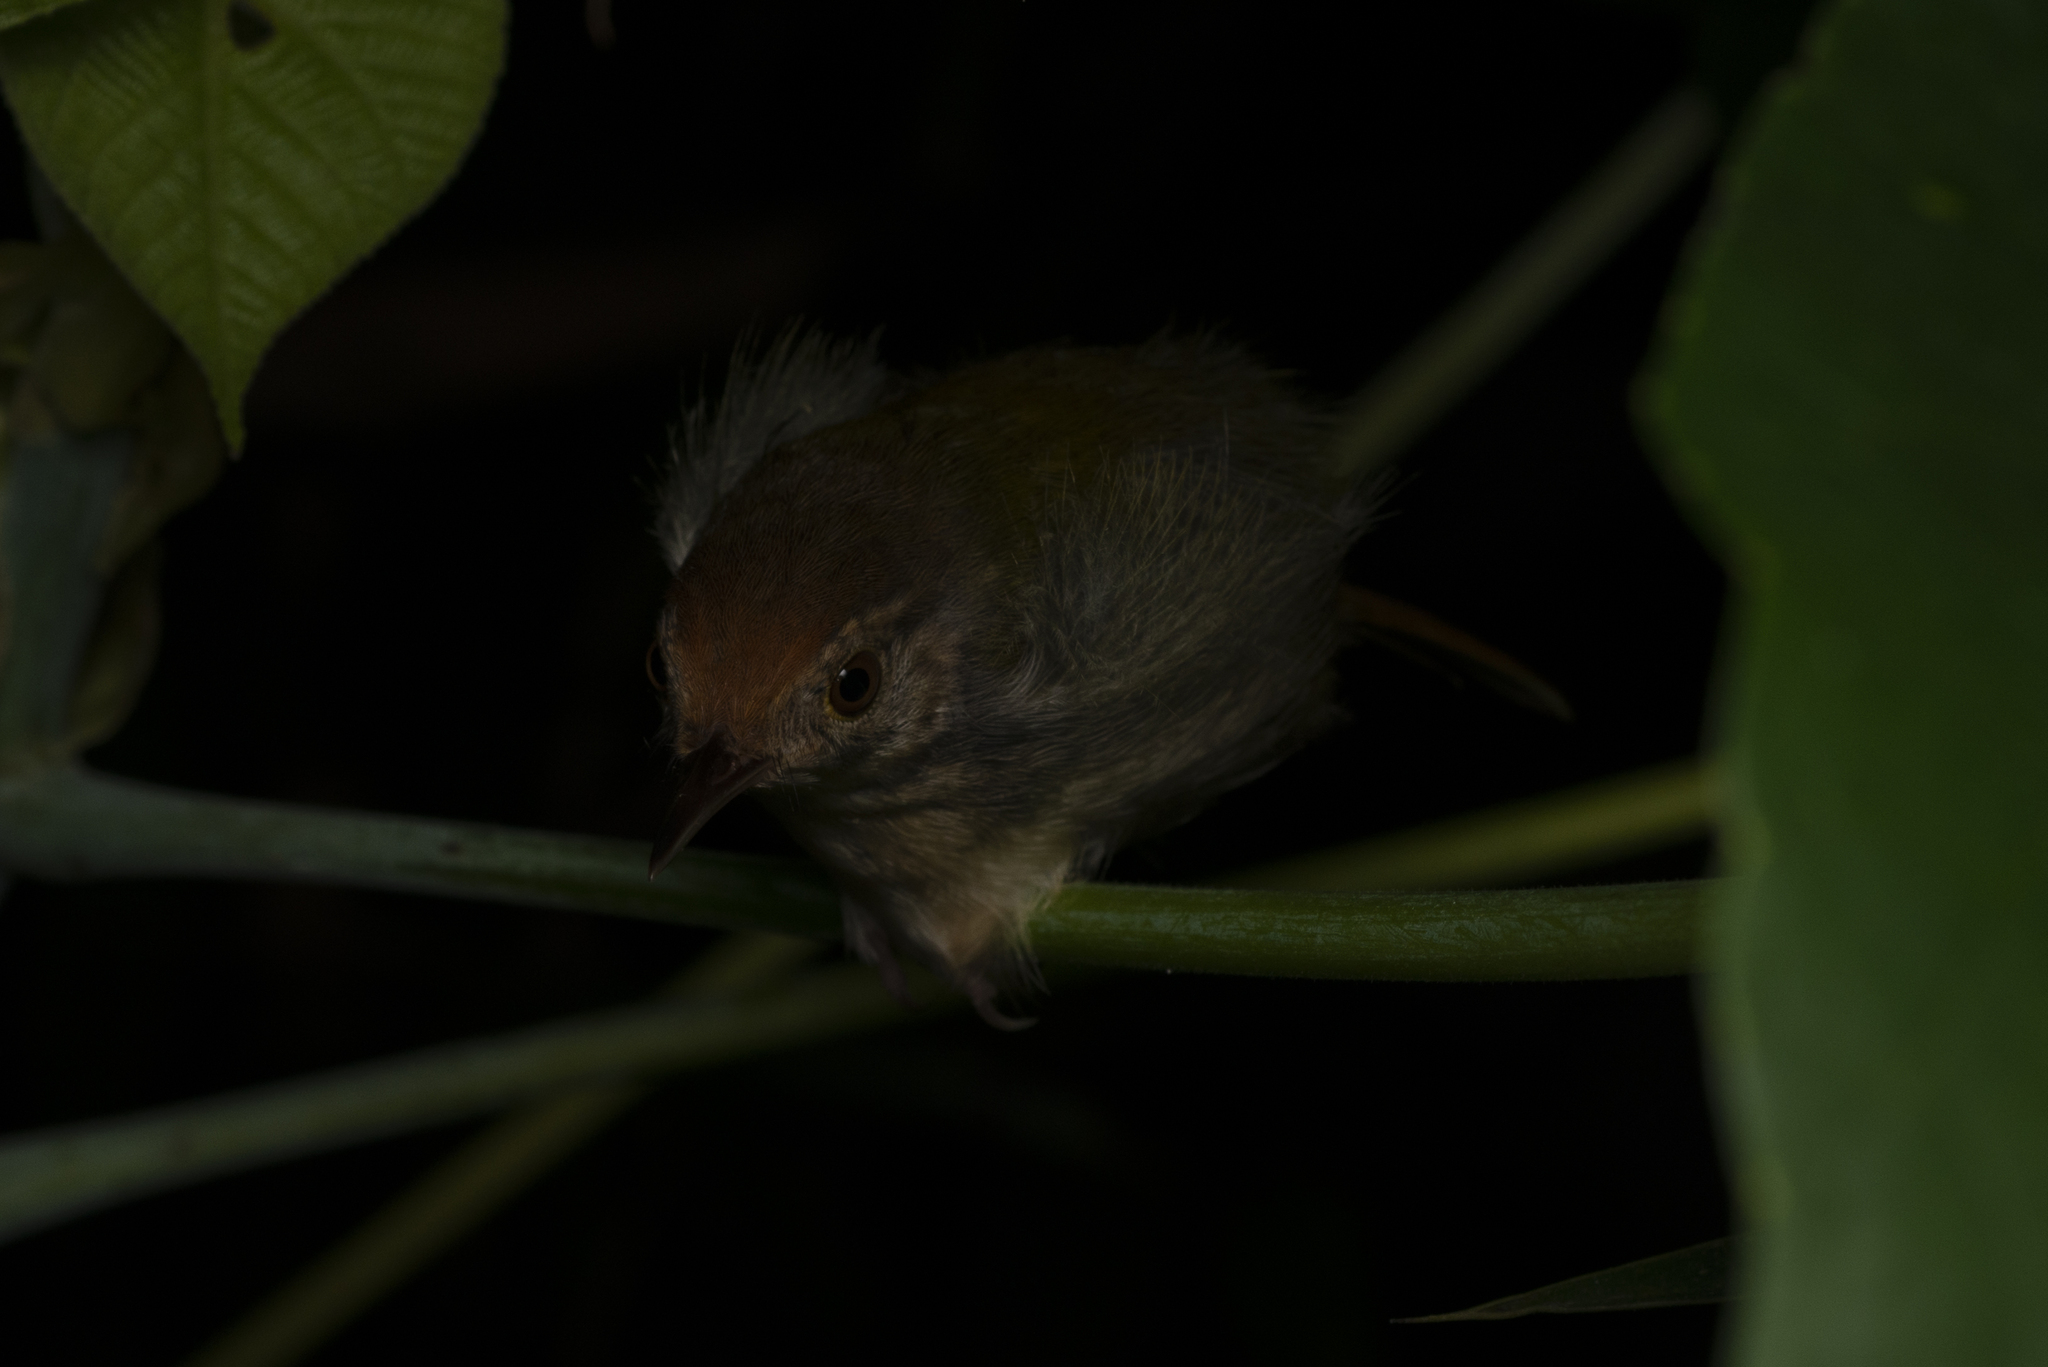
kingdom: Animalia
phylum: Chordata
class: Aves
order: Passeriformes
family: Cisticolidae
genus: Orthotomus
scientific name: Orthotomus sutorius
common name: Common tailorbird
